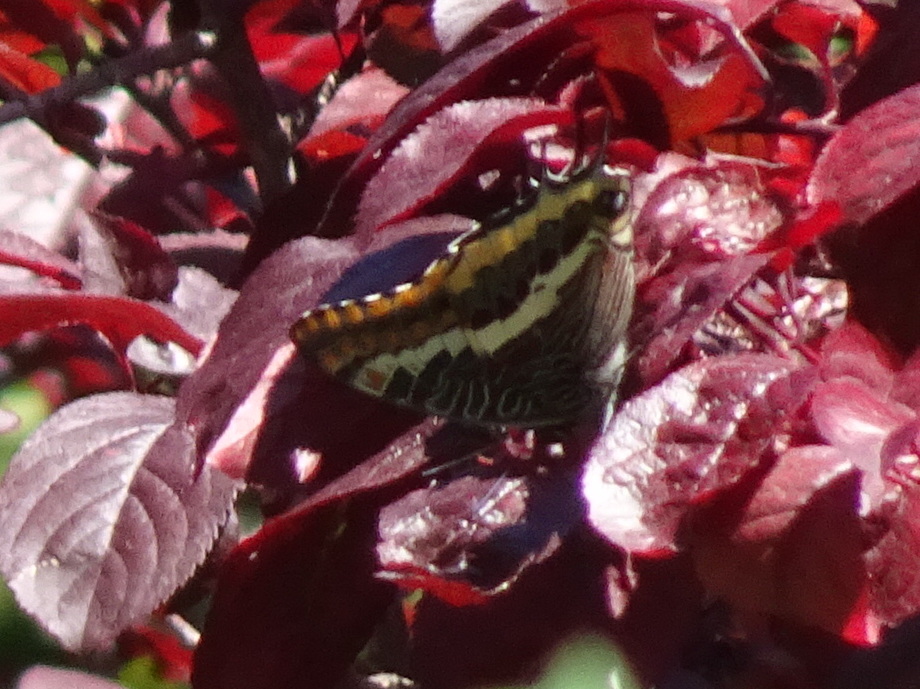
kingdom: Animalia
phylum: Arthropoda
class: Insecta
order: Lepidoptera
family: Nymphalidae
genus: Charaxes
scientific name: Charaxes jasius
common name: Two tailed pasha
